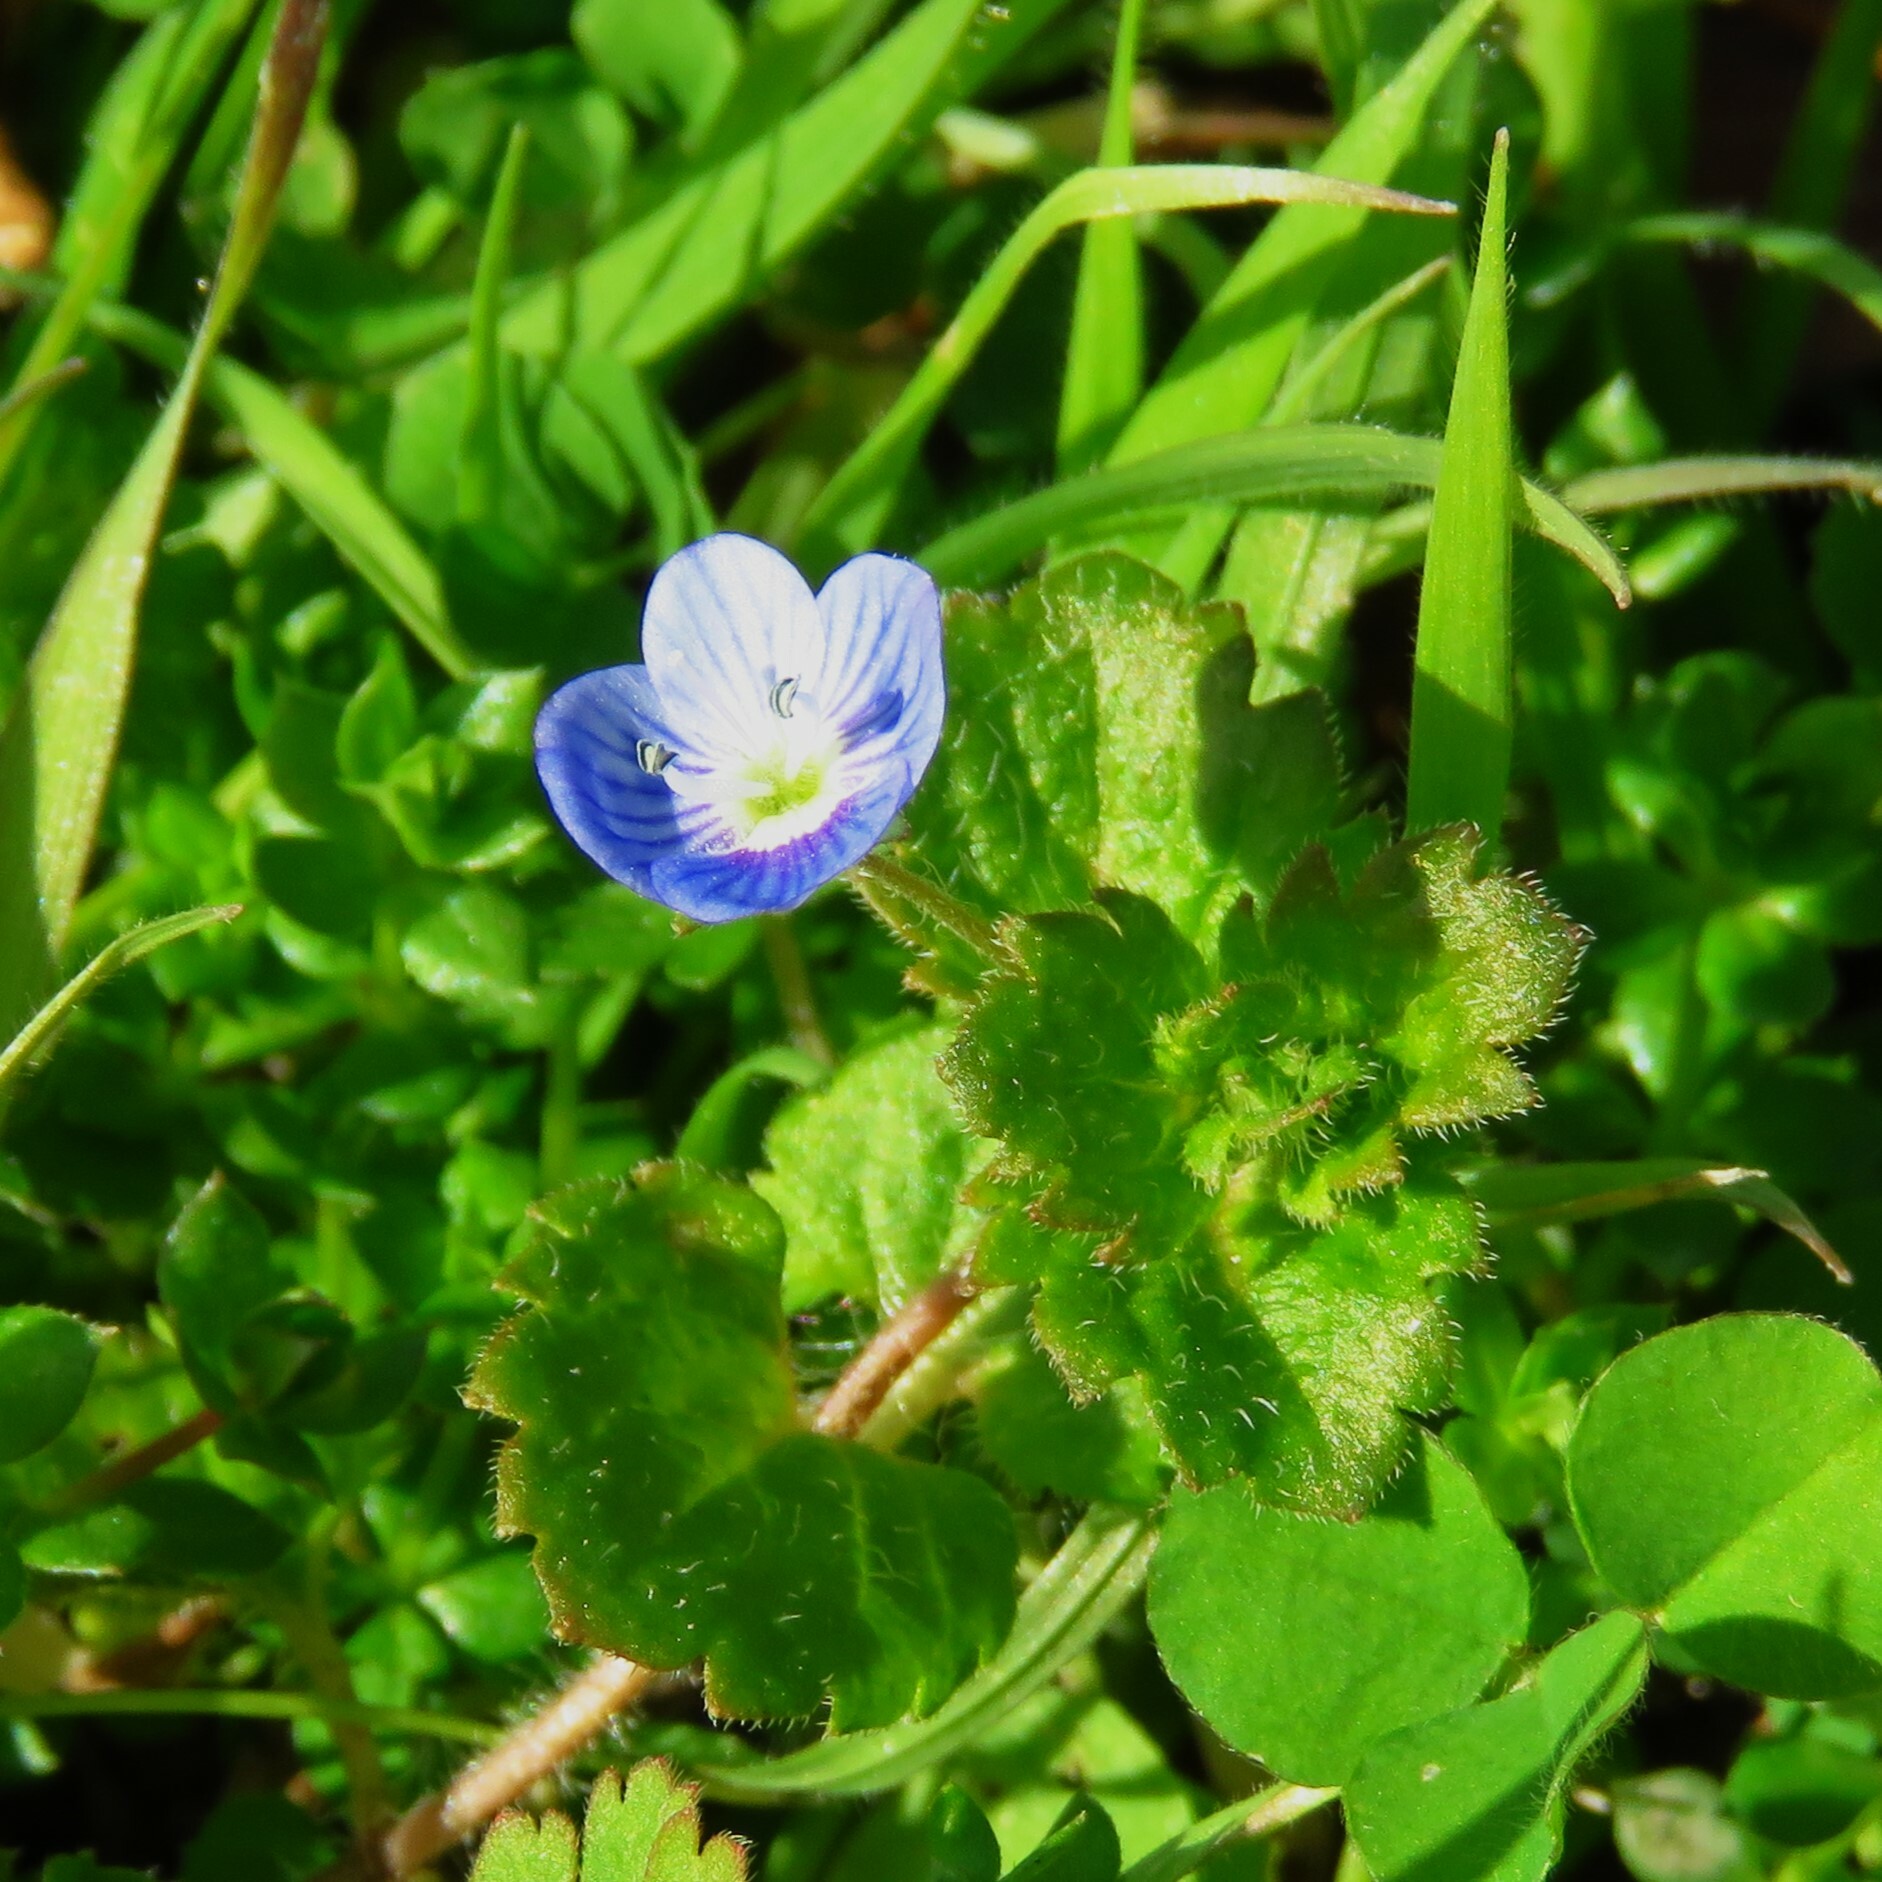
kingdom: Plantae
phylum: Tracheophyta
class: Magnoliopsida
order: Lamiales
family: Plantaginaceae
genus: Veronica
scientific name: Veronica persica
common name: Common field-speedwell
